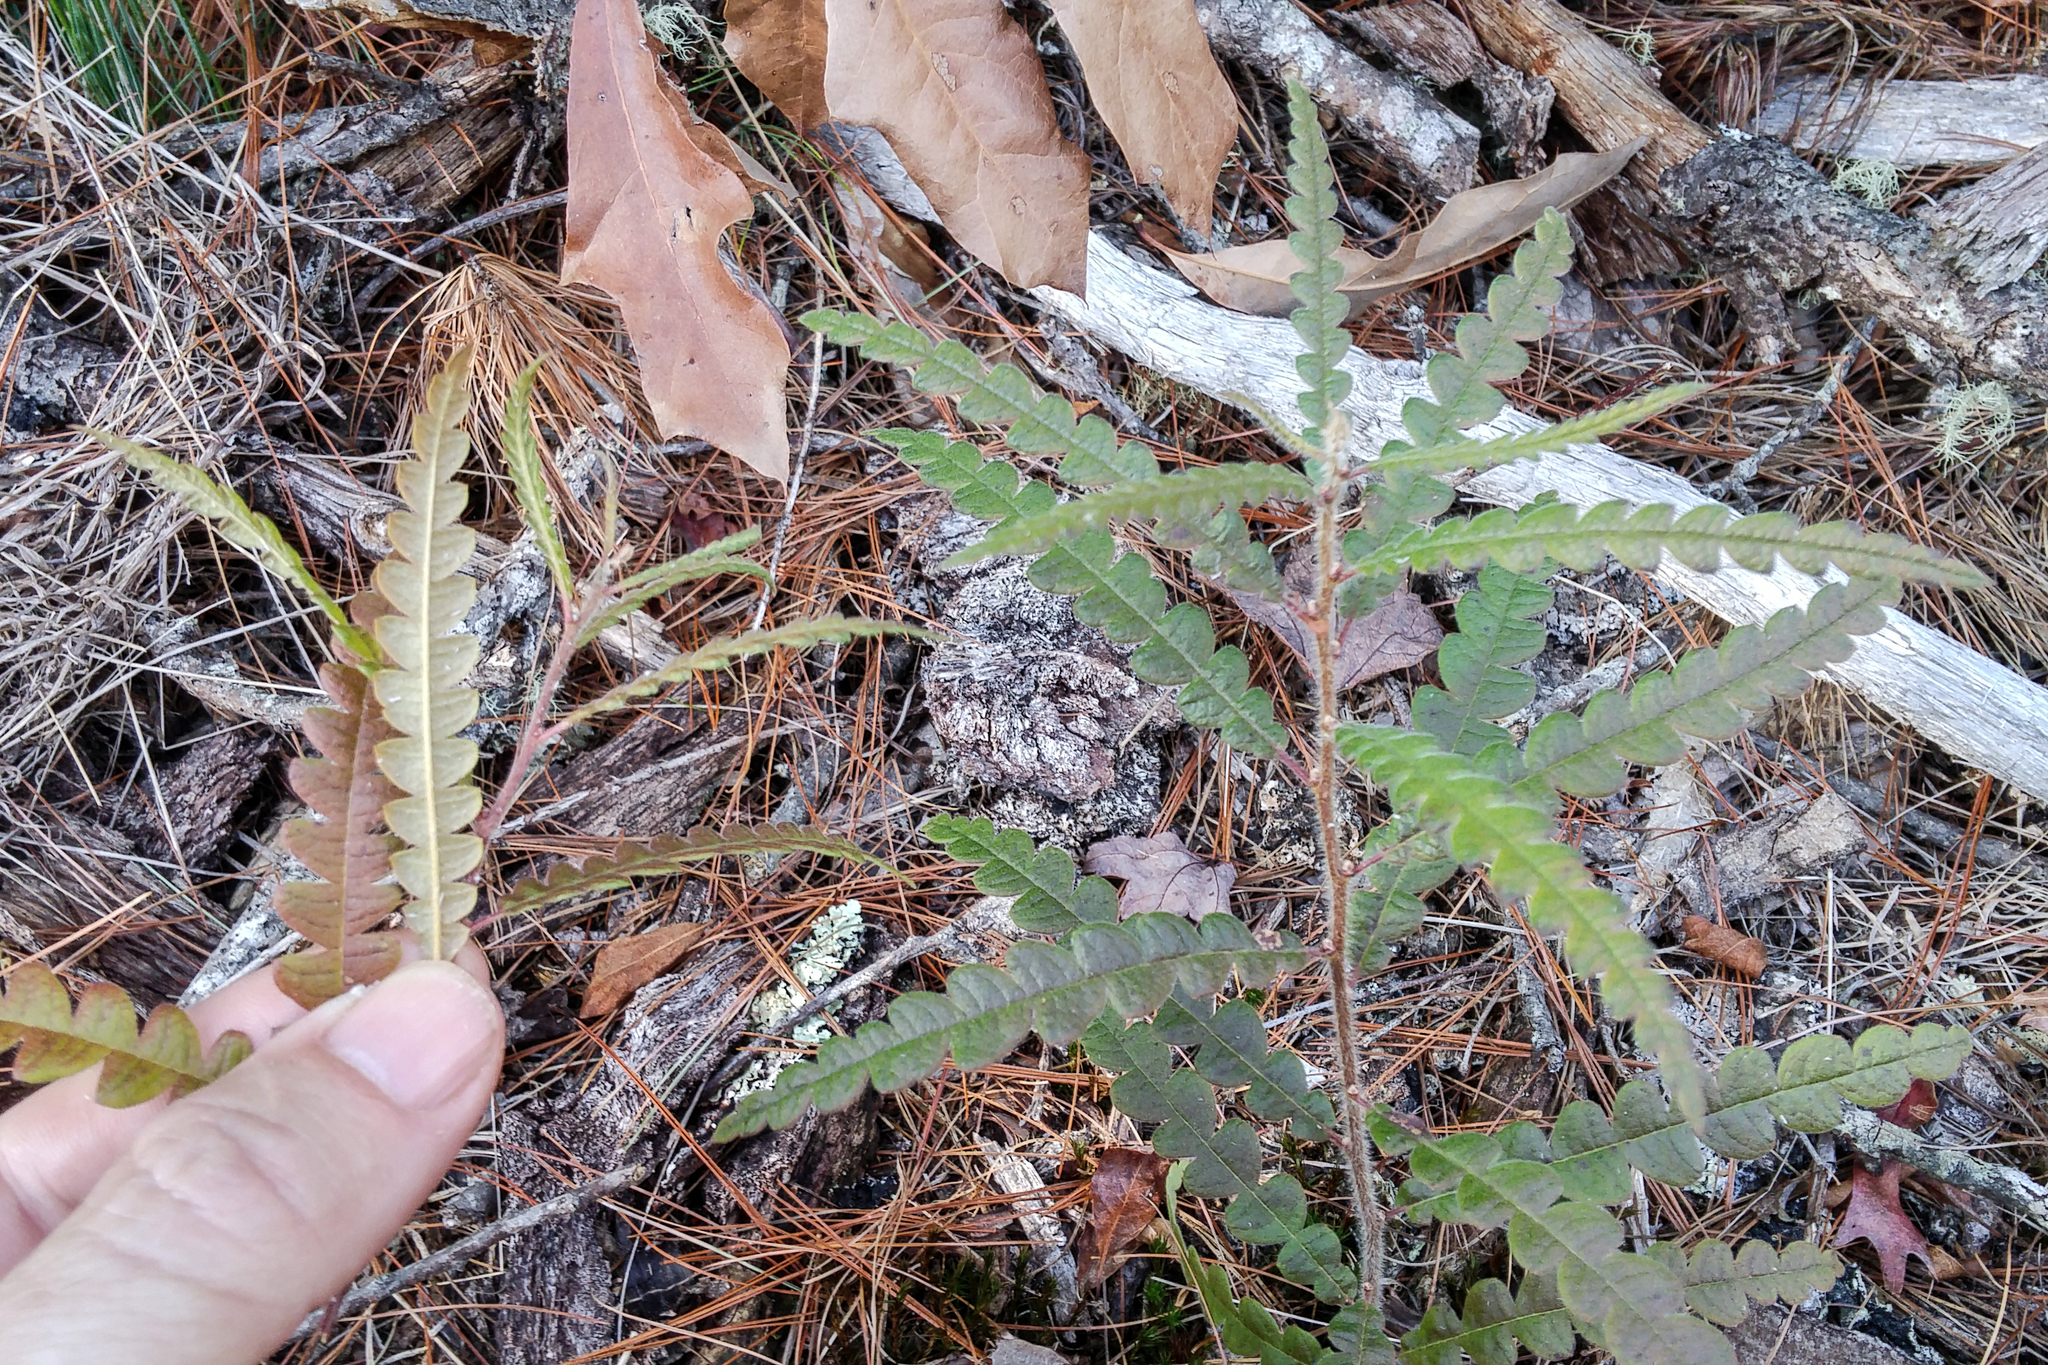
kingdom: Plantae
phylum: Tracheophyta
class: Magnoliopsida
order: Fagales
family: Myricaceae
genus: Comptonia
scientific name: Comptonia peregrina
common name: Sweet-fern
